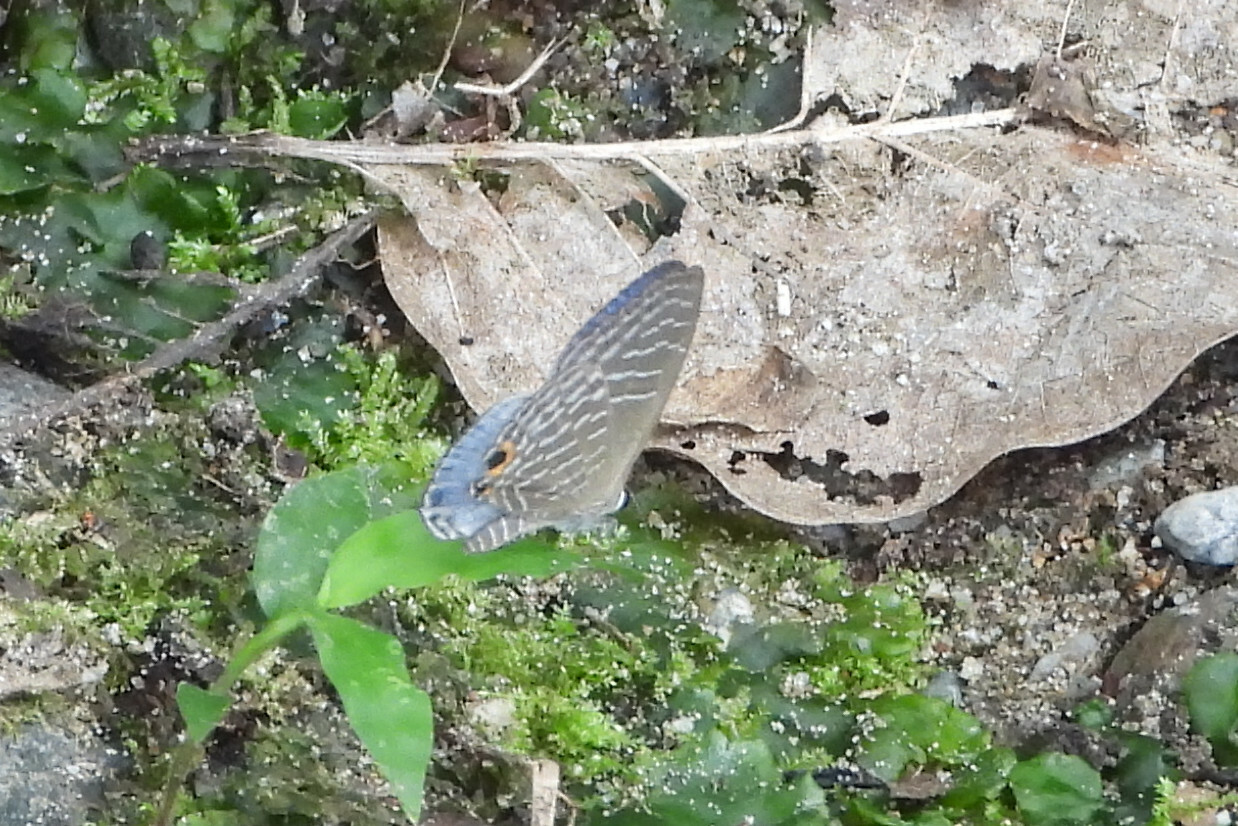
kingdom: Animalia
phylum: Arthropoda
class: Insecta
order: Lepidoptera
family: Lycaenidae
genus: Jamides
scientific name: Jamides elpis
